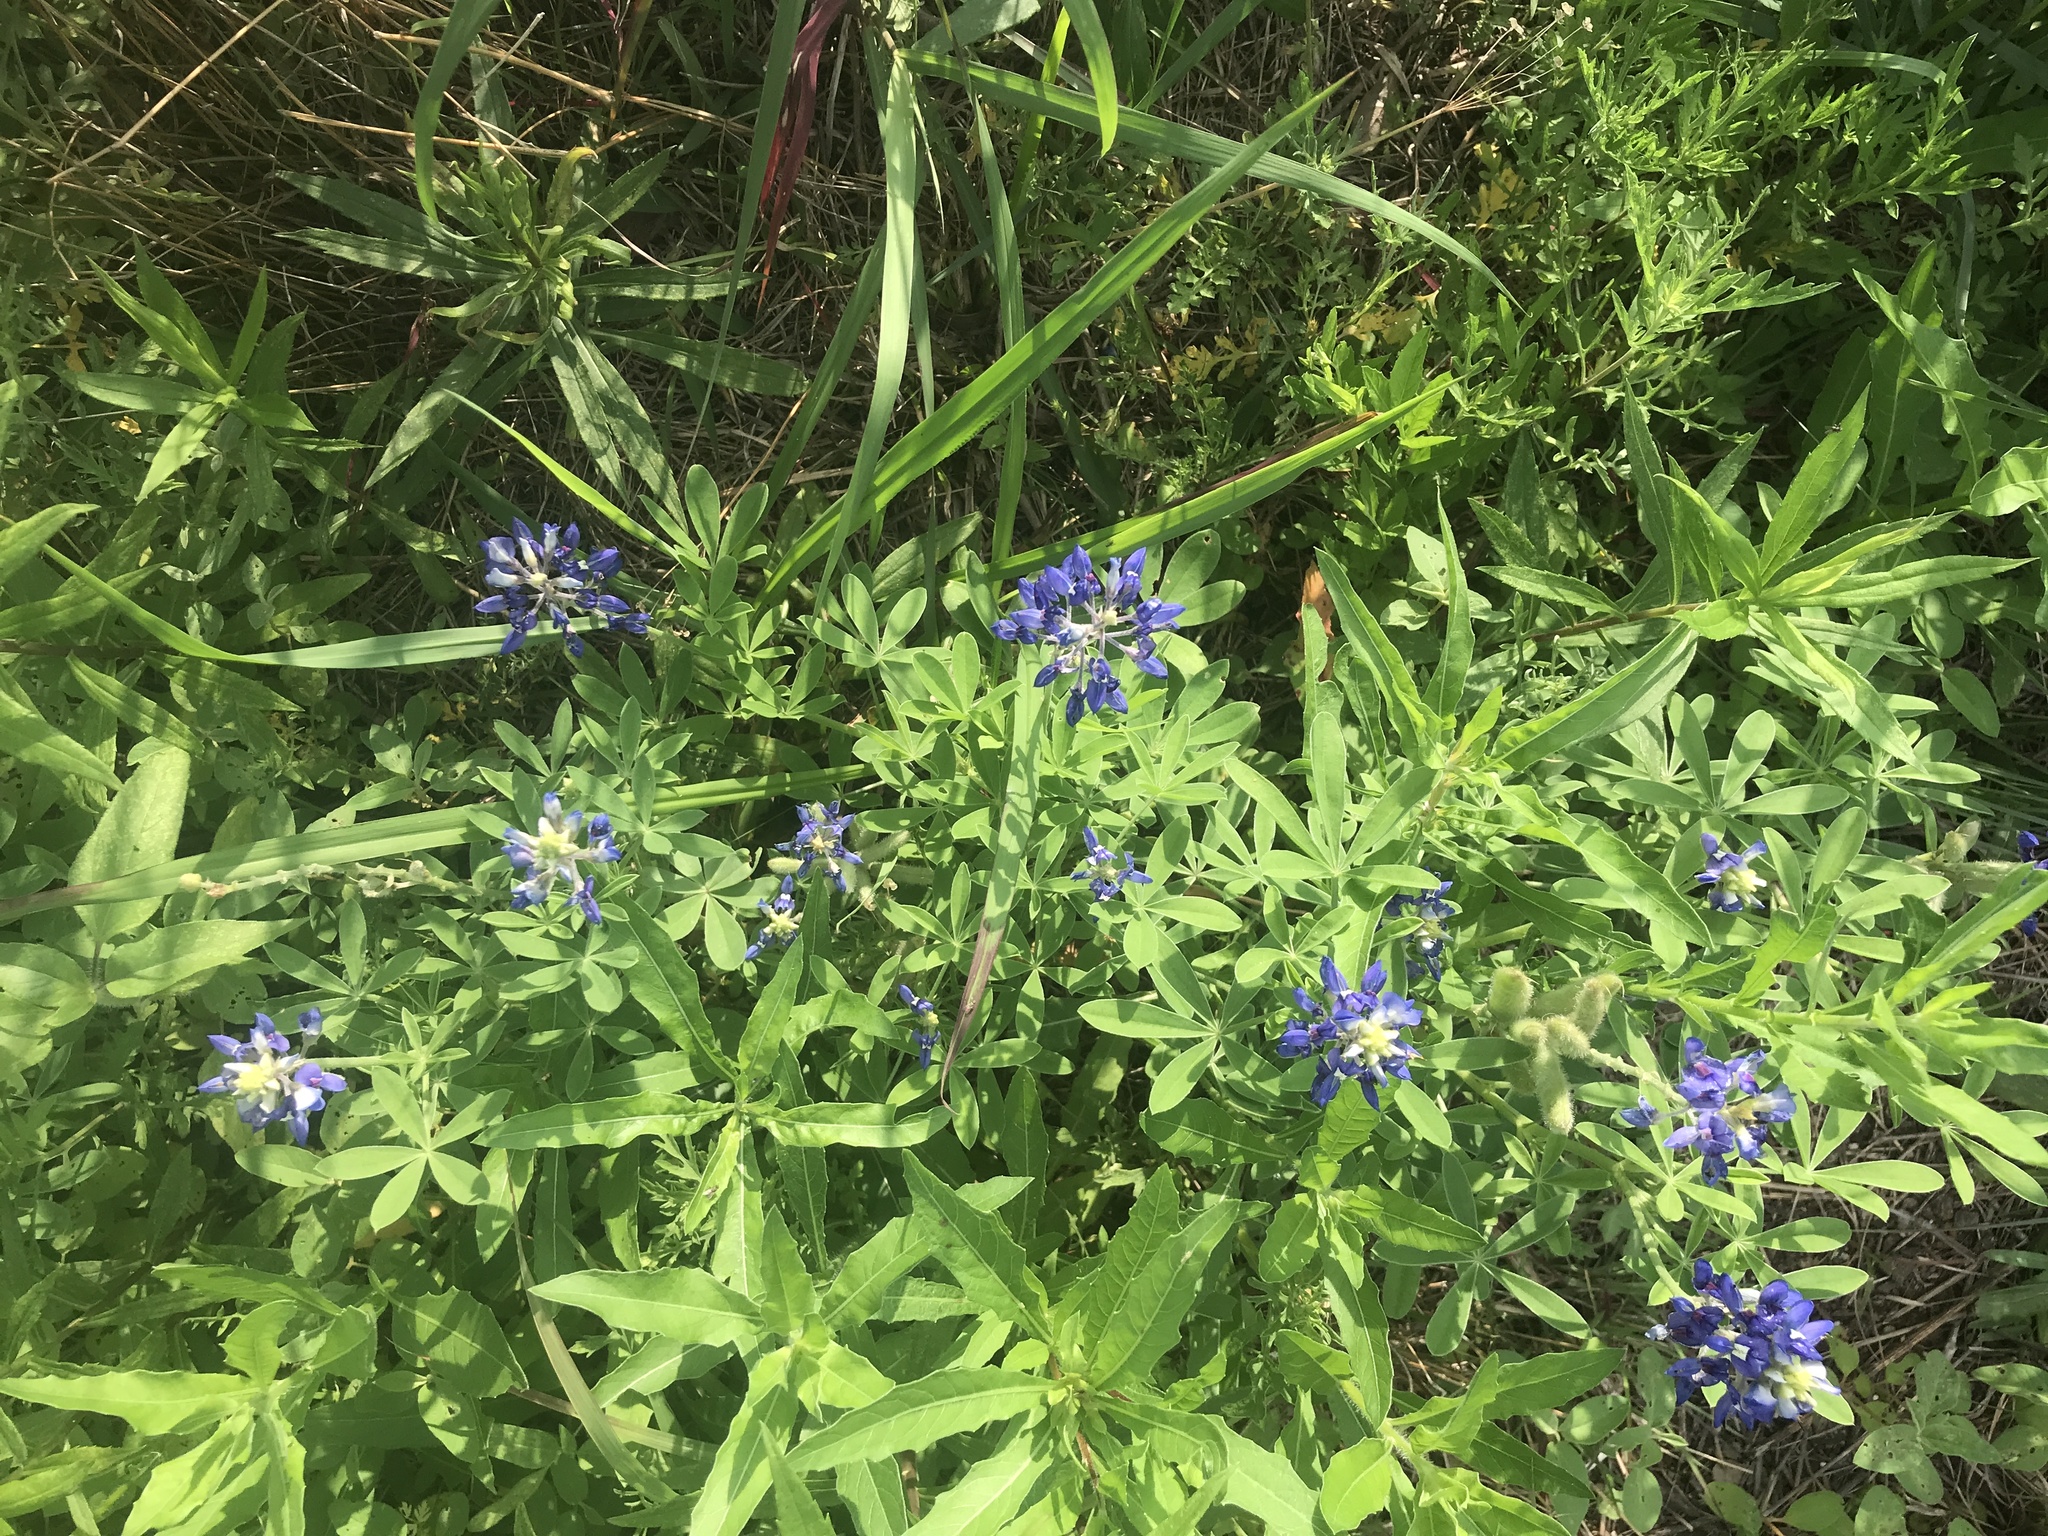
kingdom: Plantae
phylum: Tracheophyta
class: Magnoliopsida
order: Fabales
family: Fabaceae
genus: Lupinus
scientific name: Lupinus texensis
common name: Texas bluebonnet
